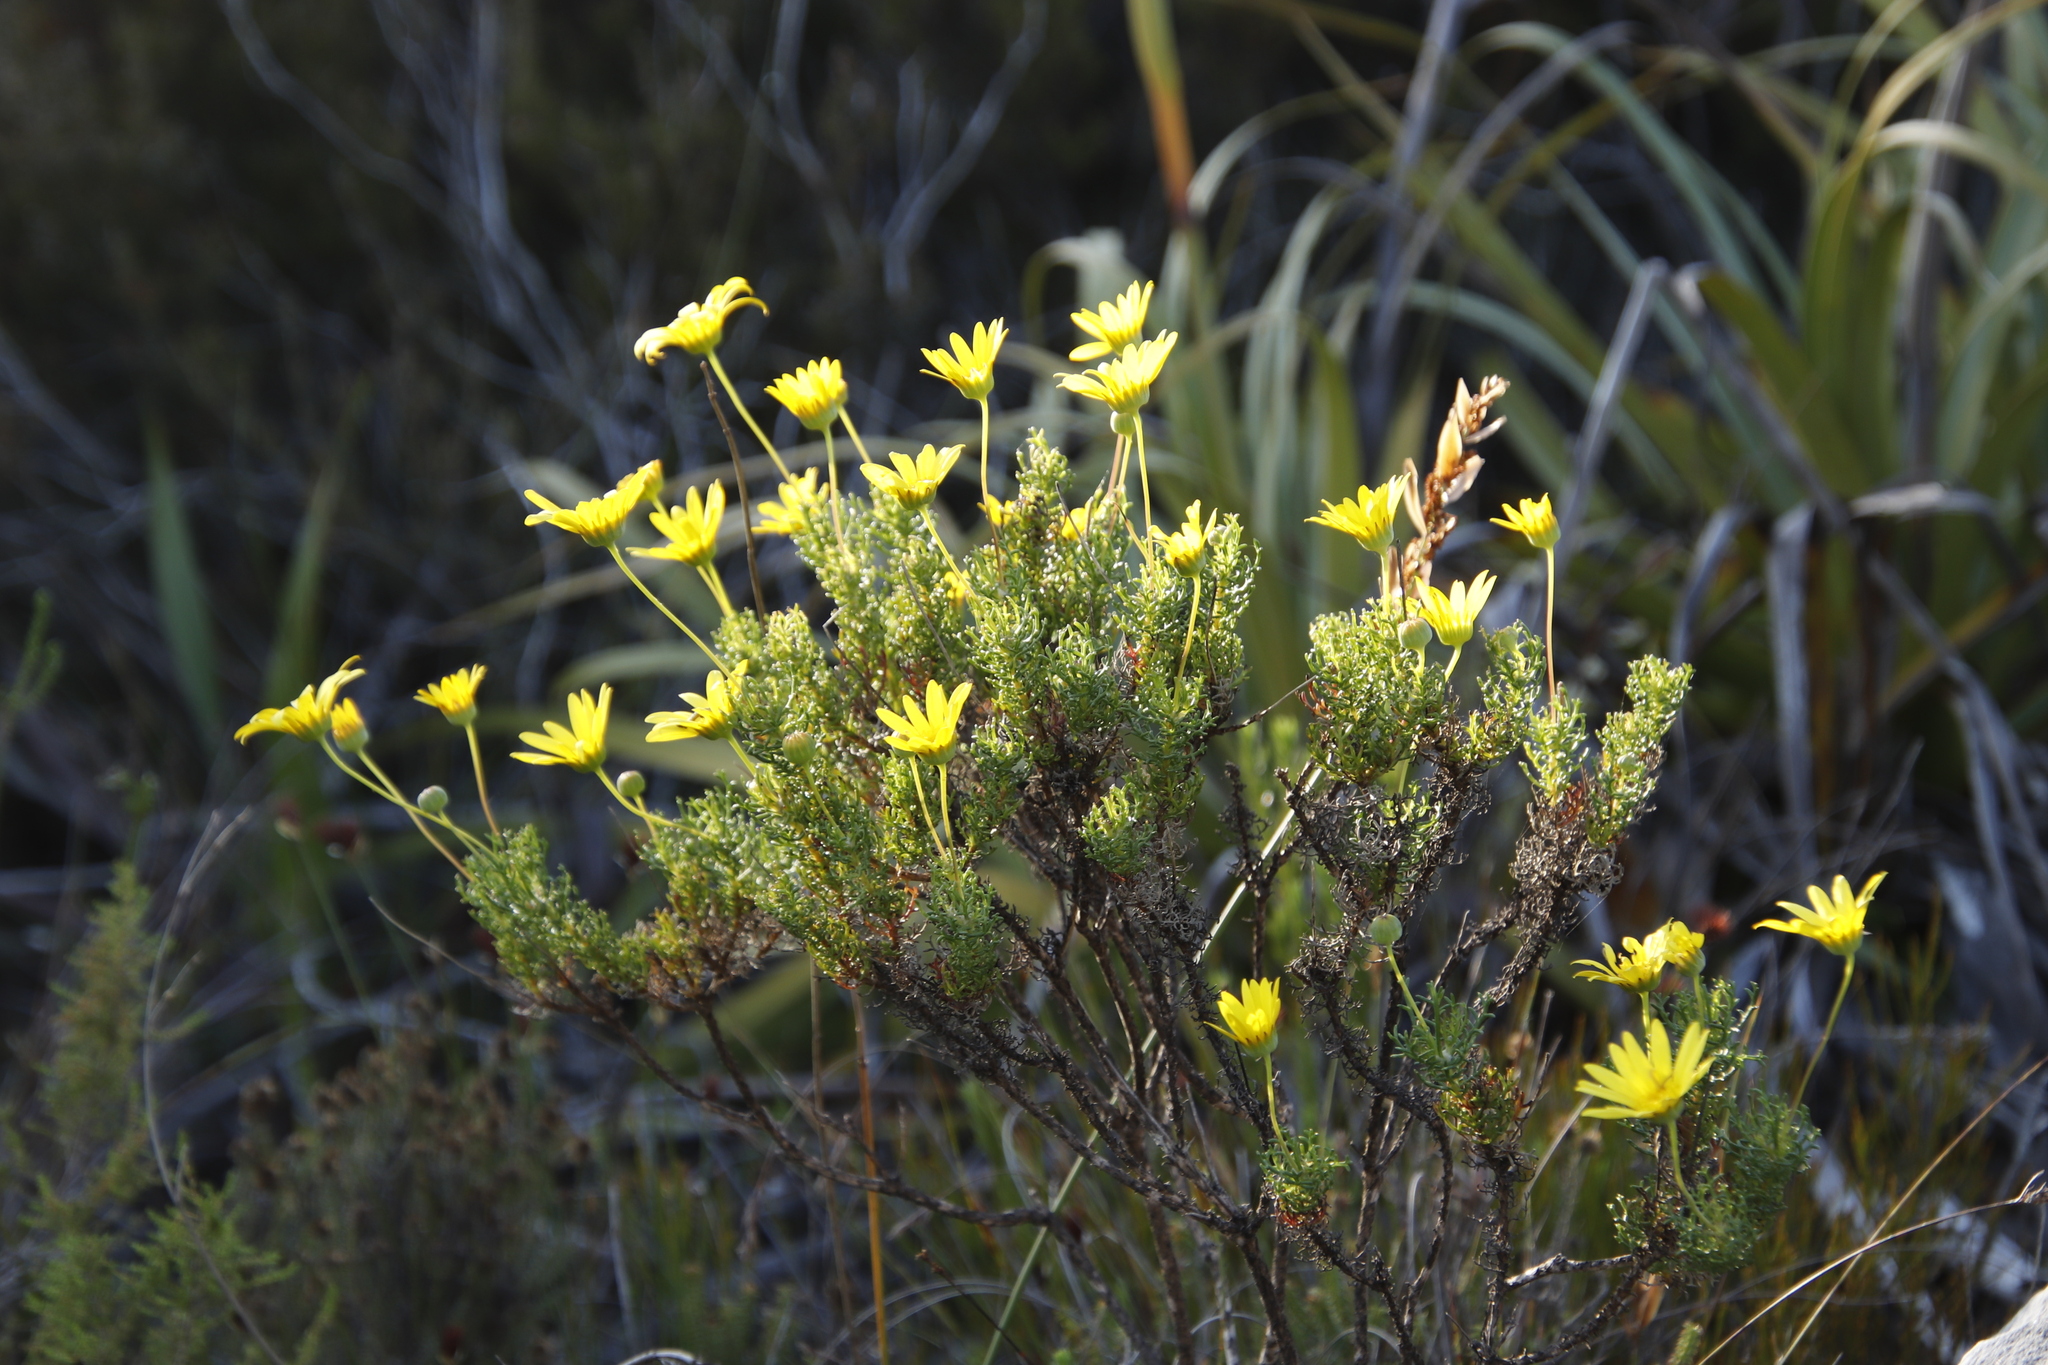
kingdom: Plantae
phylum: Tracheophyta
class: Magnoliopsida
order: Asterales
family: Asteraceae
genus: Euryops
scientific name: Euryops abrotanifolius
